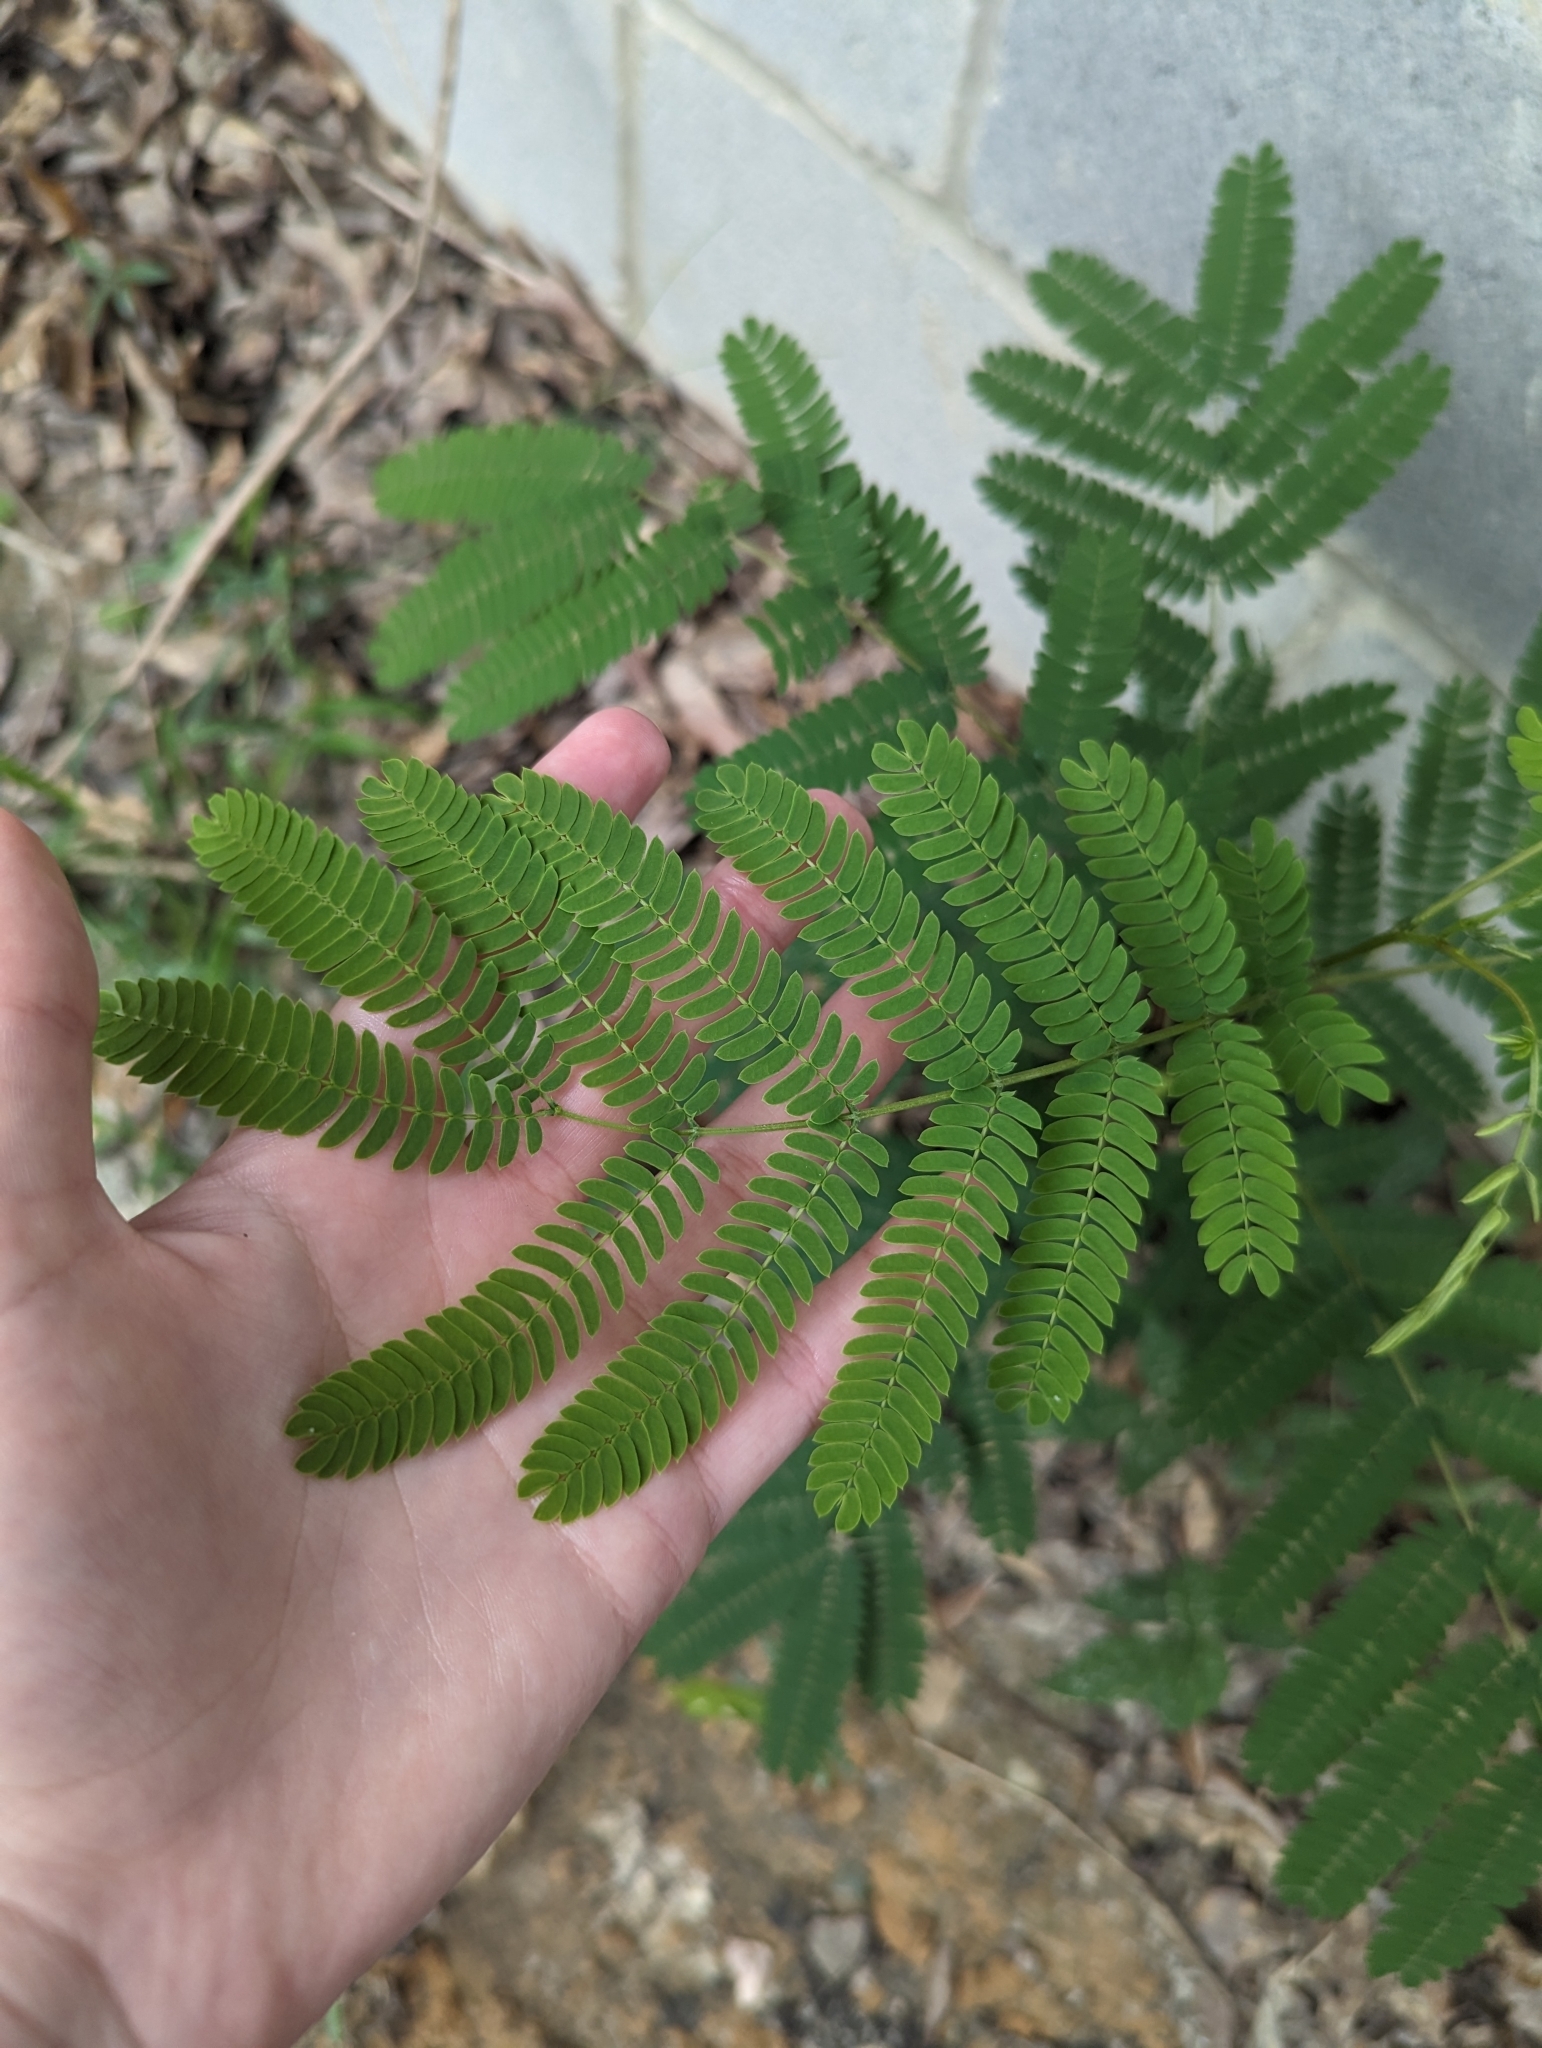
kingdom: Plantae
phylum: Tracheophyta
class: Magnoliopsida
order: Fabales
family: Fabaceae
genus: Albizia
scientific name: Albizia julibrissin
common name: Silktree
